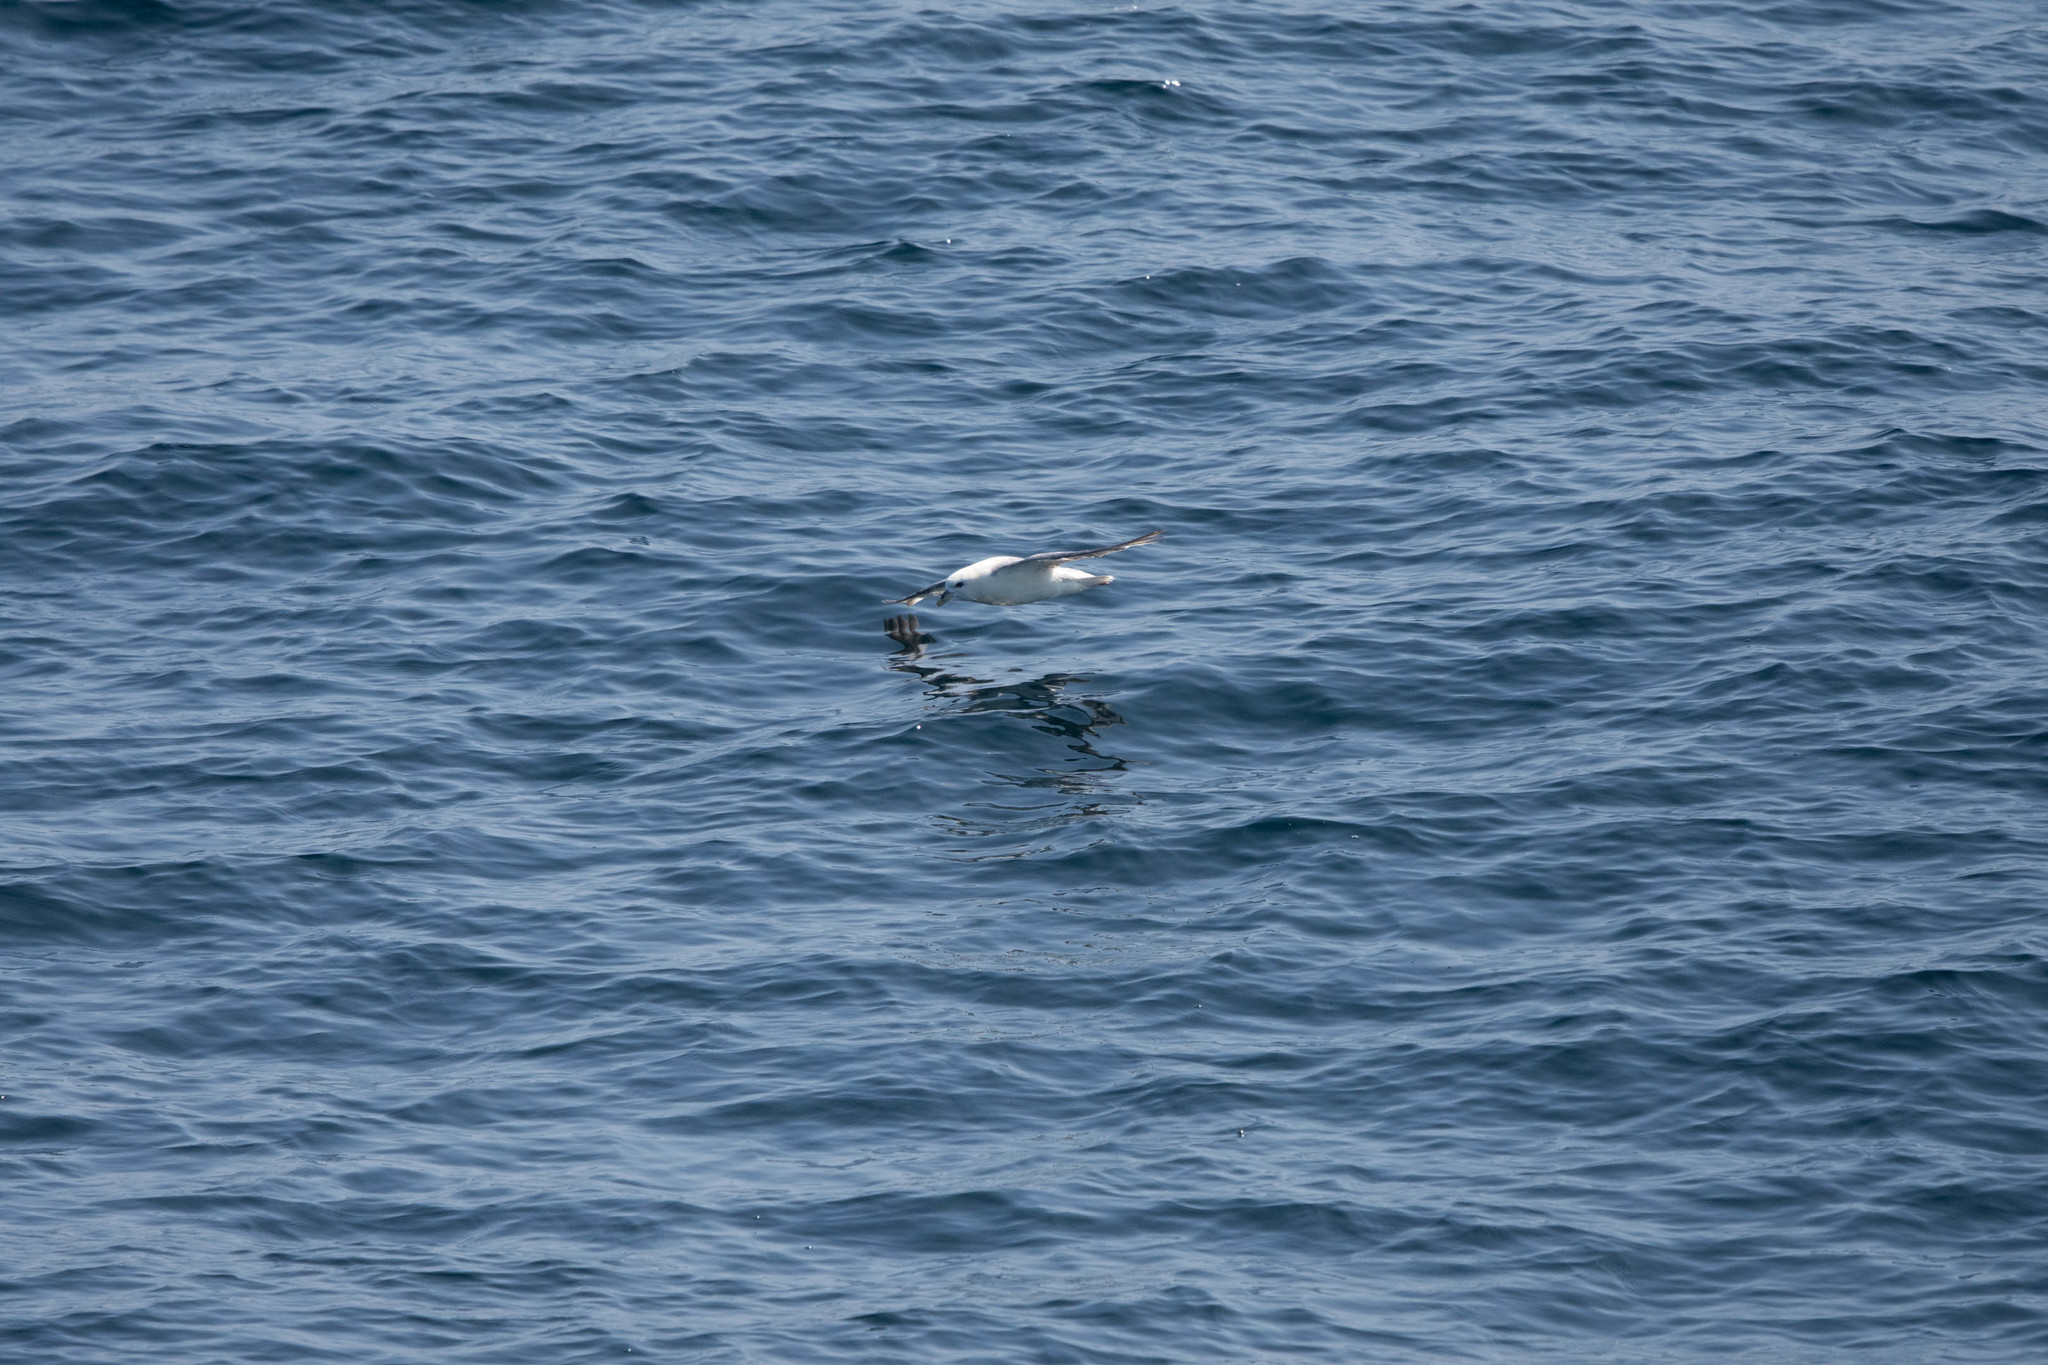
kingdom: Animalia
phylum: Chordata
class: Aves
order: Procellariiformes
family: Procellariidae
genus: Fulmarus
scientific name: Fulmarus glacialis
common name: Northern fulmar
